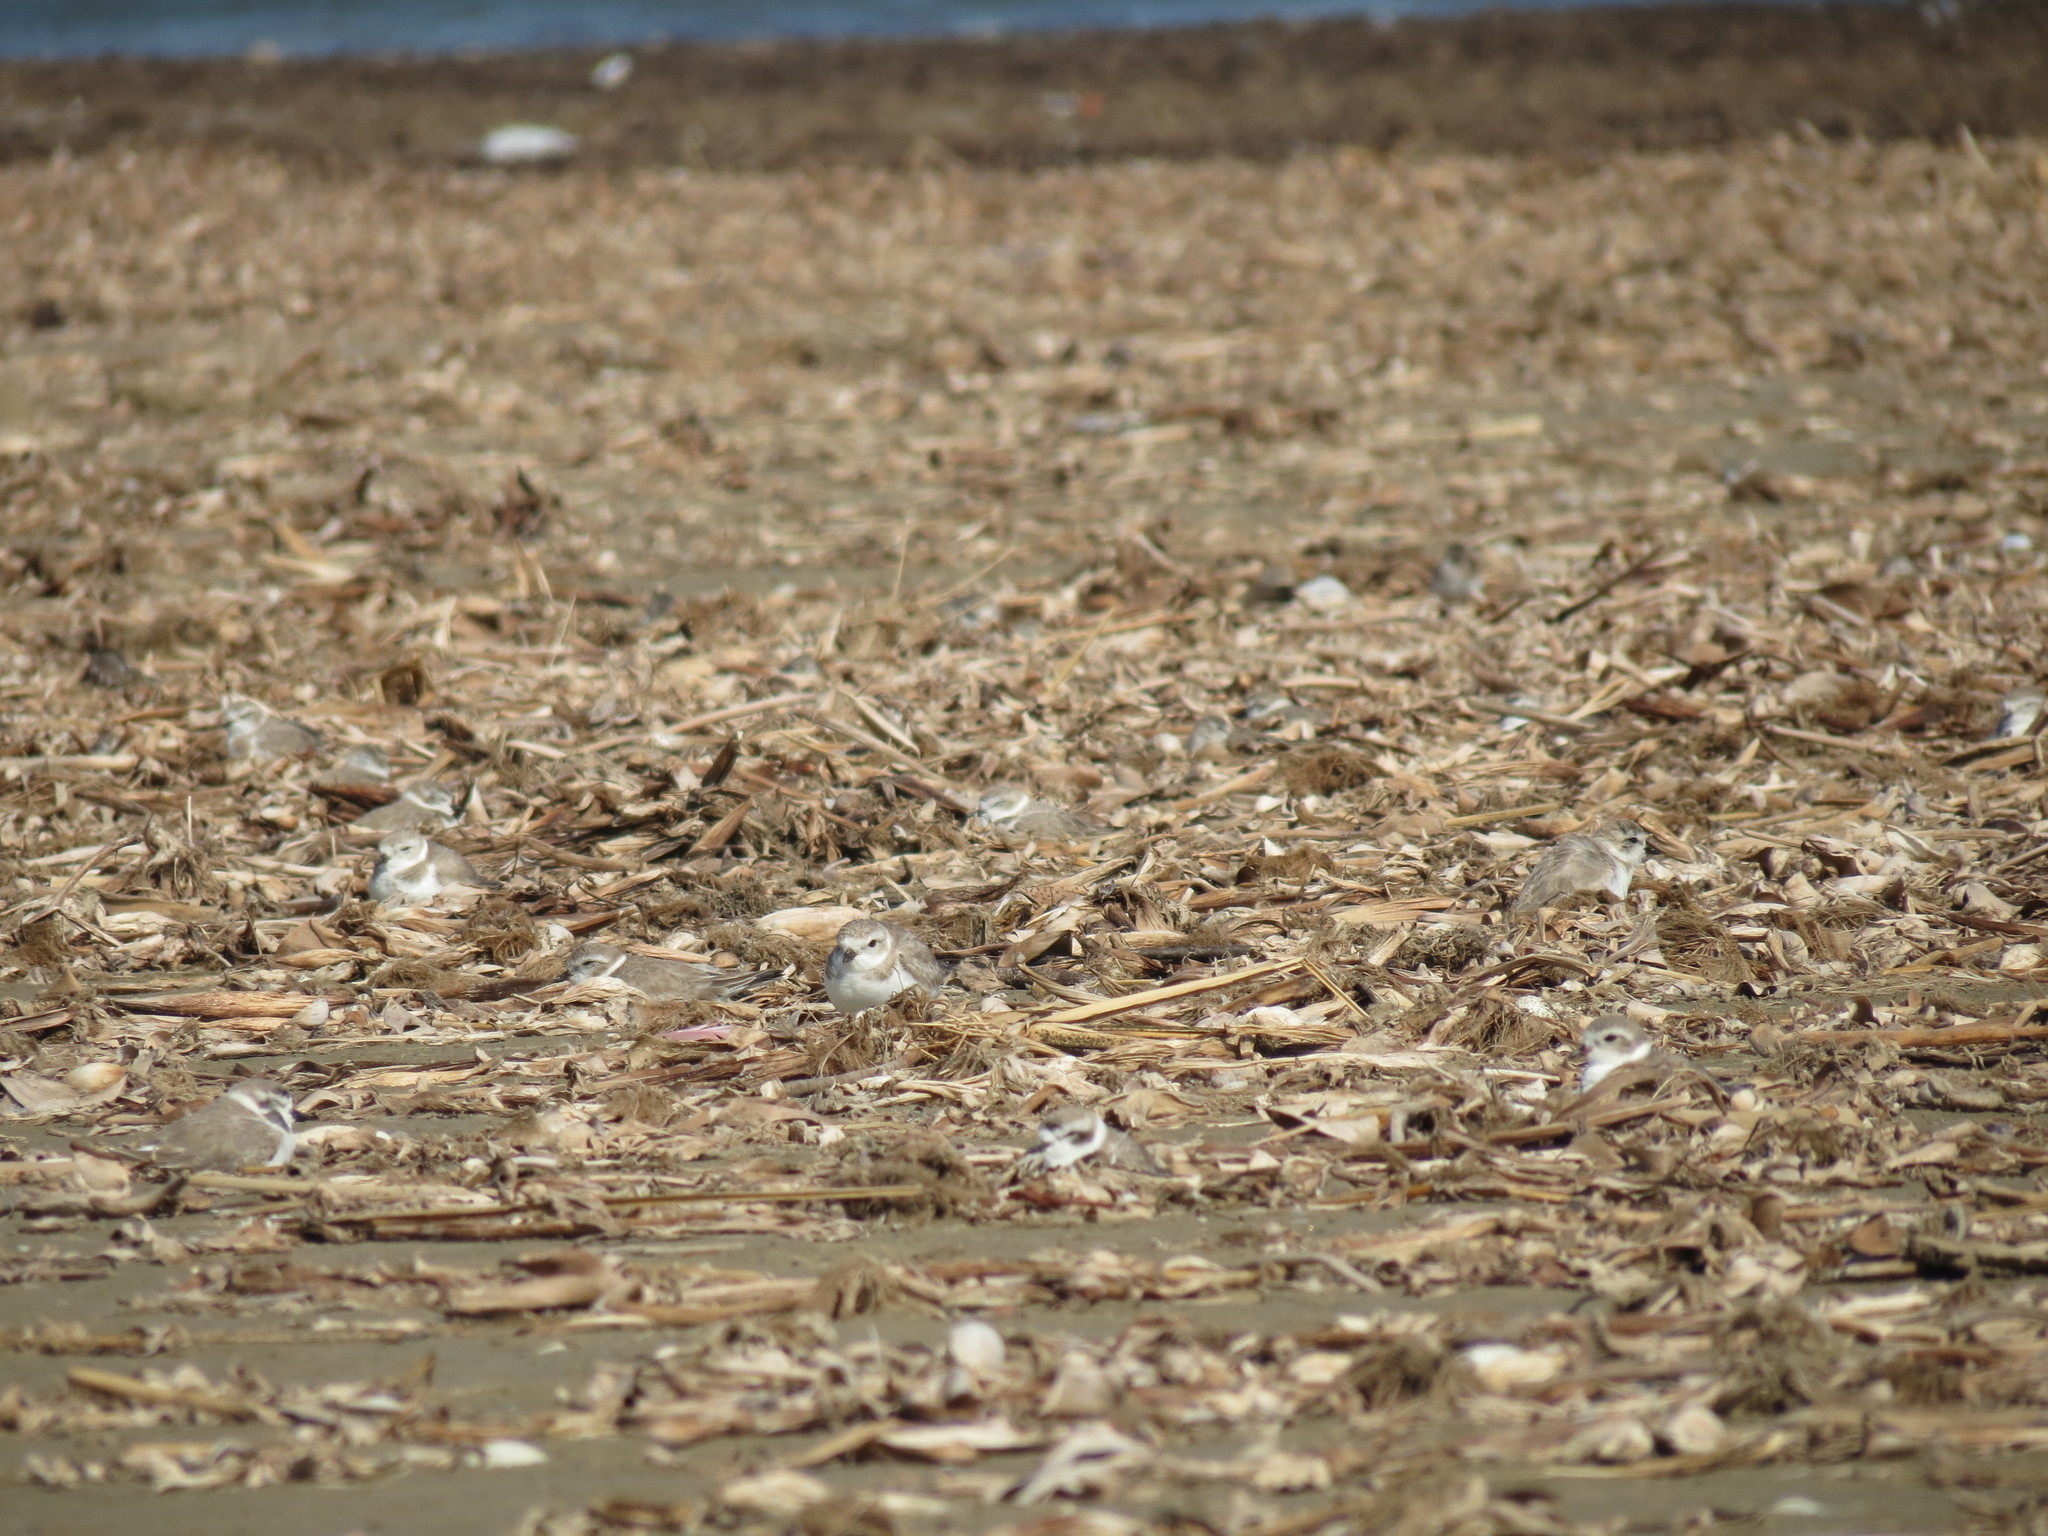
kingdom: Animalia
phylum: Chordata
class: Aves
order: Charadriiformes
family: Charadriidae
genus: Charadrius
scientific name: Charadrius melodus
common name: Piping plover
